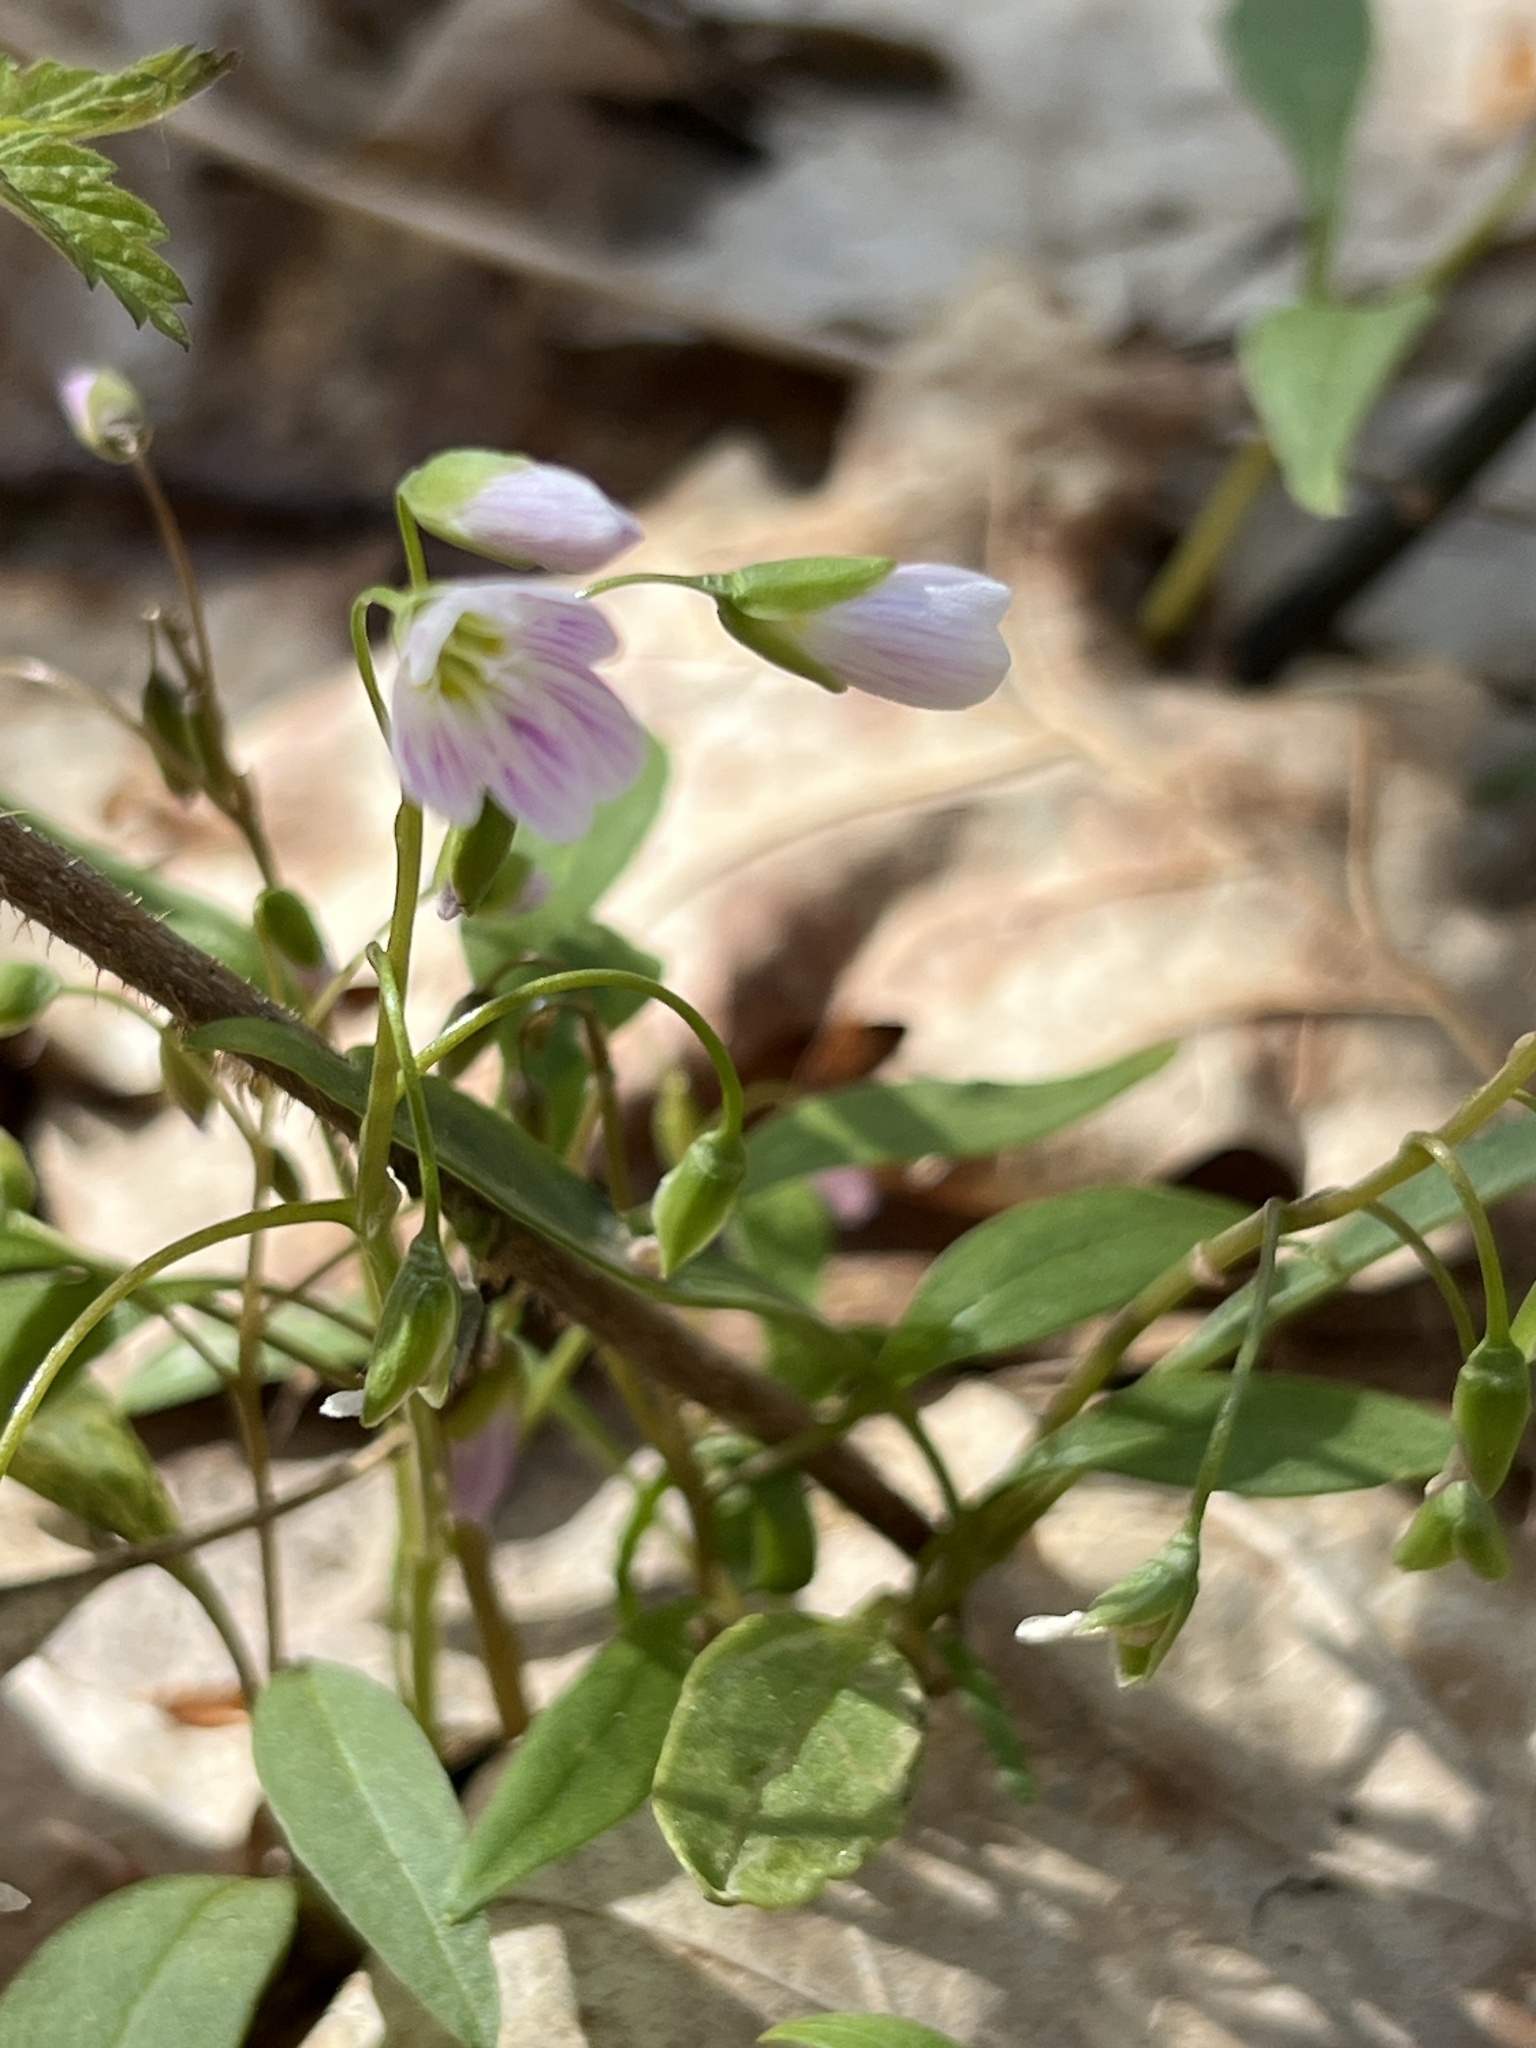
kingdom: Plantae
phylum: Tracheophyta
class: Magnoliopsida
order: Caryophyllales
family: Montiaceae
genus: Claytonia
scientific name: Claytonia caroliniana
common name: Carolina spring beauty
